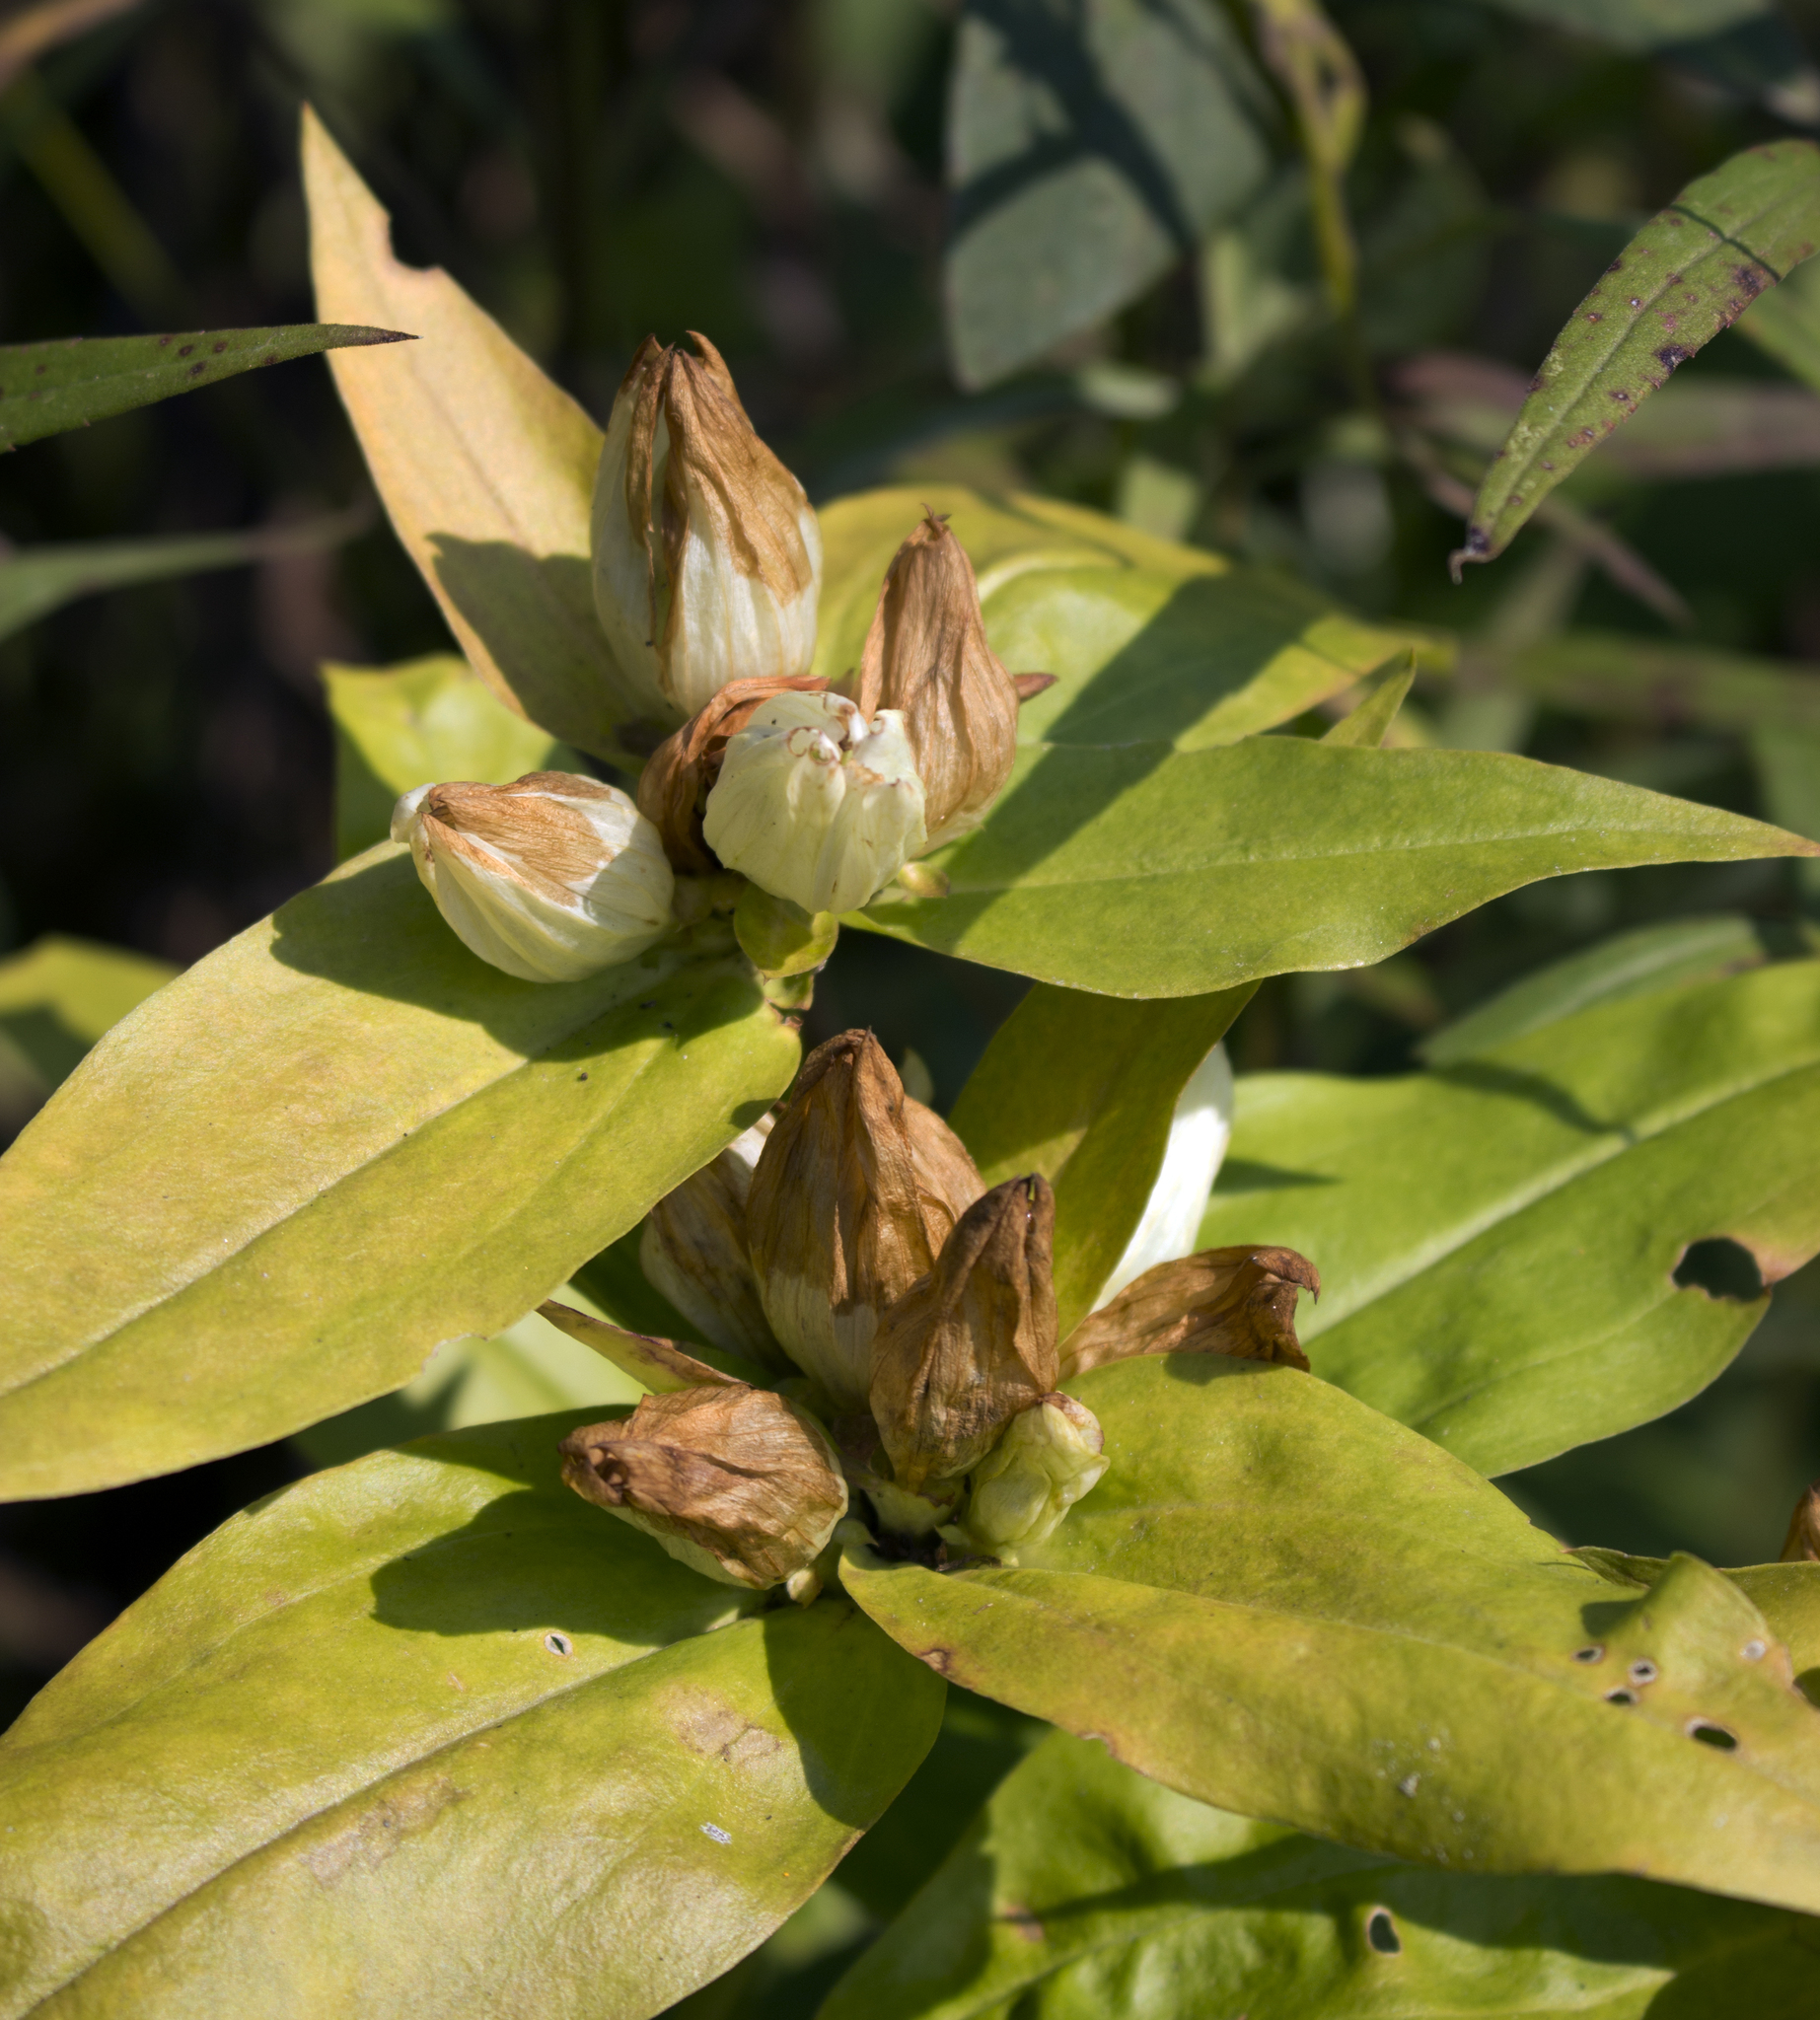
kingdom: Plantae
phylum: Tracheophyta
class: Magnoliopsida
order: Gentianales
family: Gentianaceae
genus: Gentiana
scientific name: Gentiana alba
